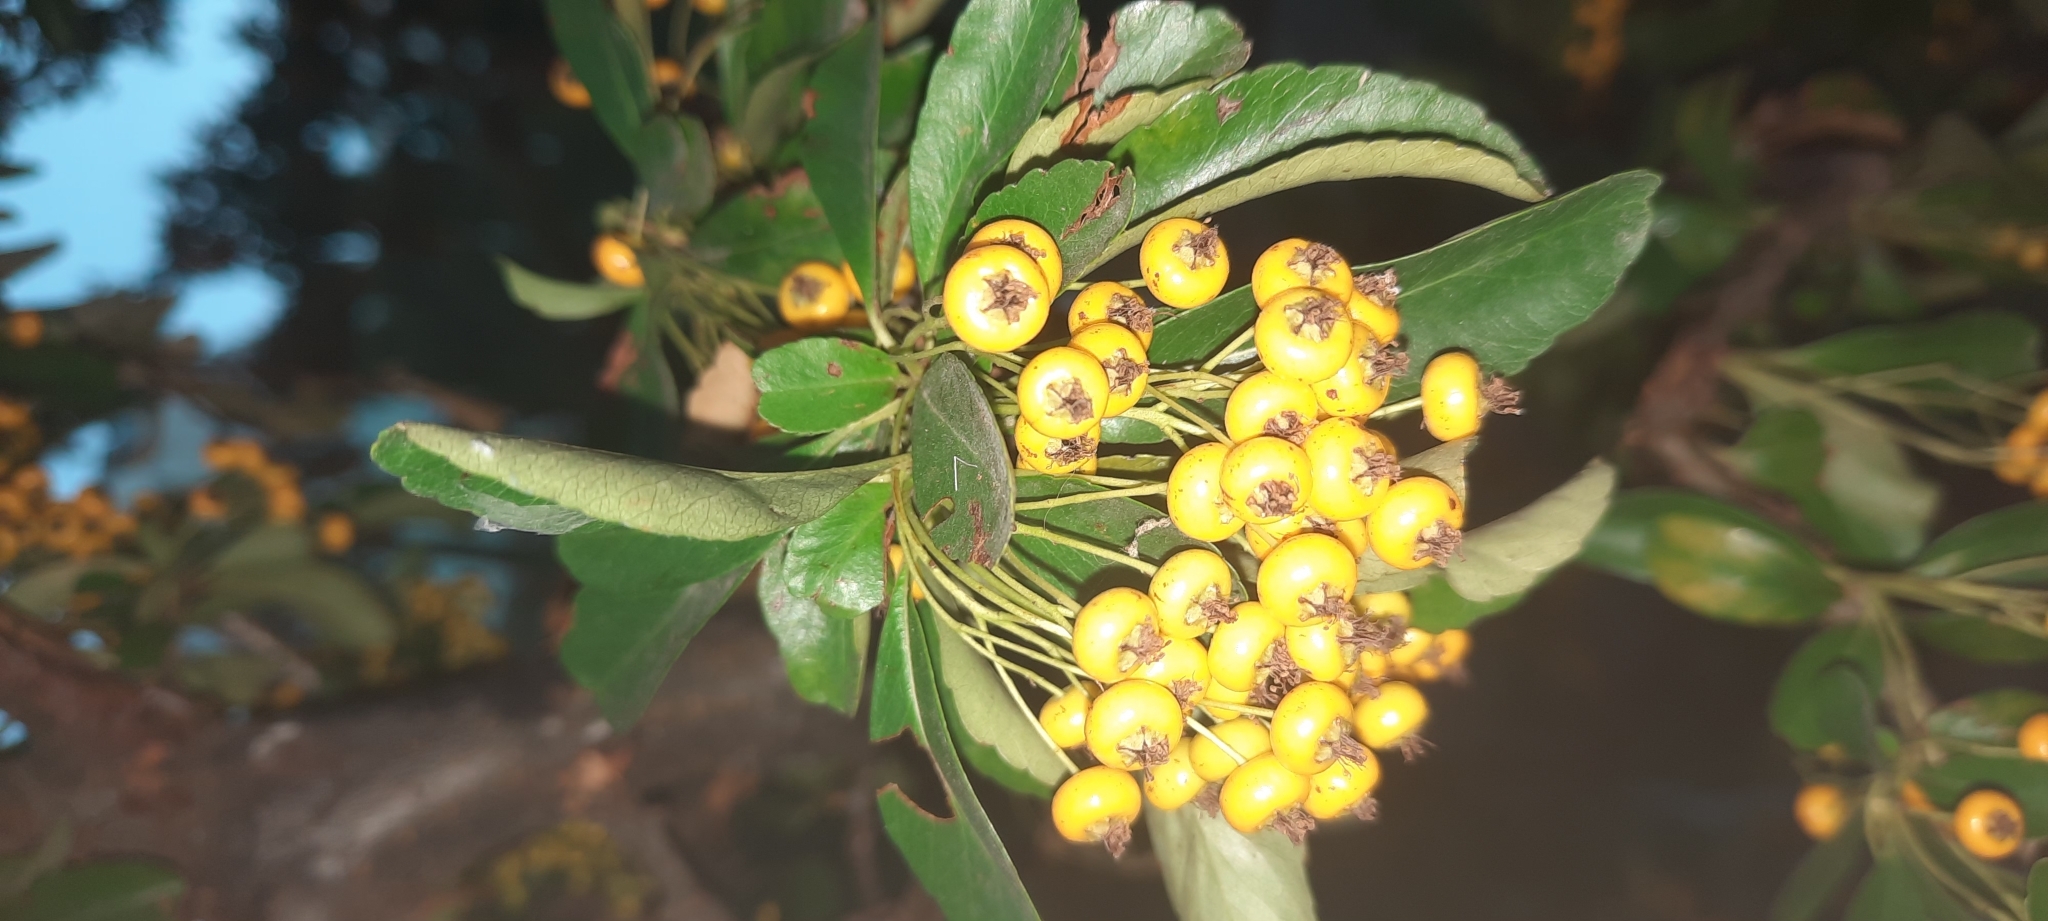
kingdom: Plantae
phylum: Tracheophyta
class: Magnoliopsida
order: Rosales
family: Rosaceae
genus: Pyracantha
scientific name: Pyracantha coccinea
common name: Firethorn
